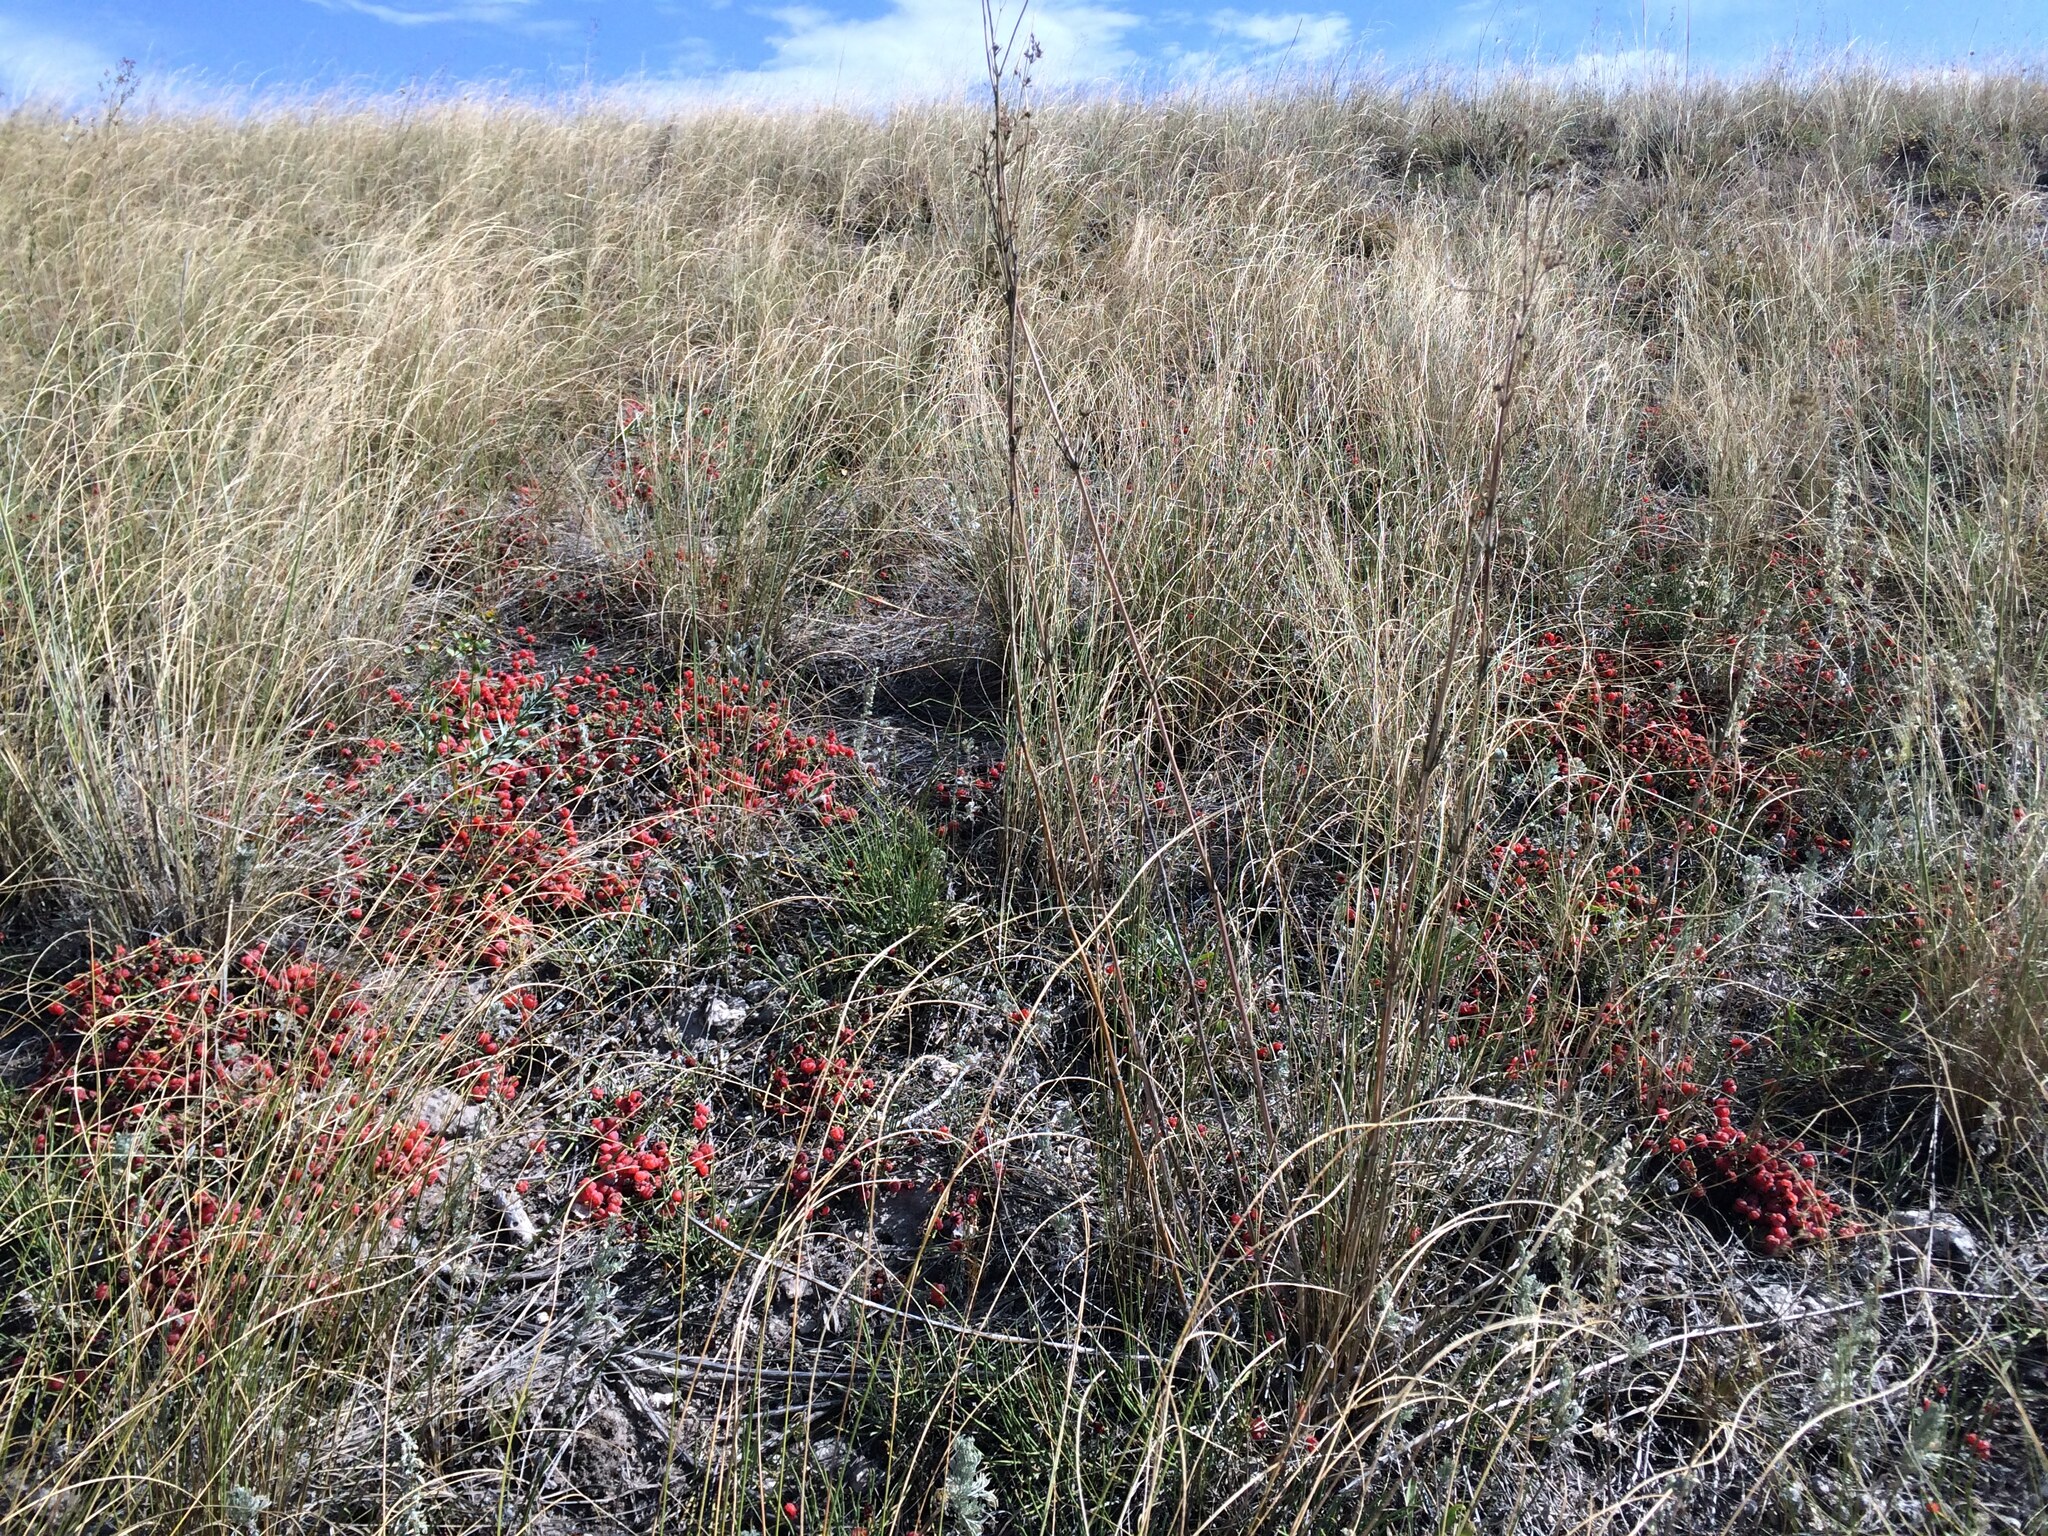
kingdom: Plantae
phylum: Tracheophyta
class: Gnetopsida
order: Ephedrales
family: Ephedraceae
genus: Ephedra
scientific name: Ephedra distachya
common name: Sea grape
